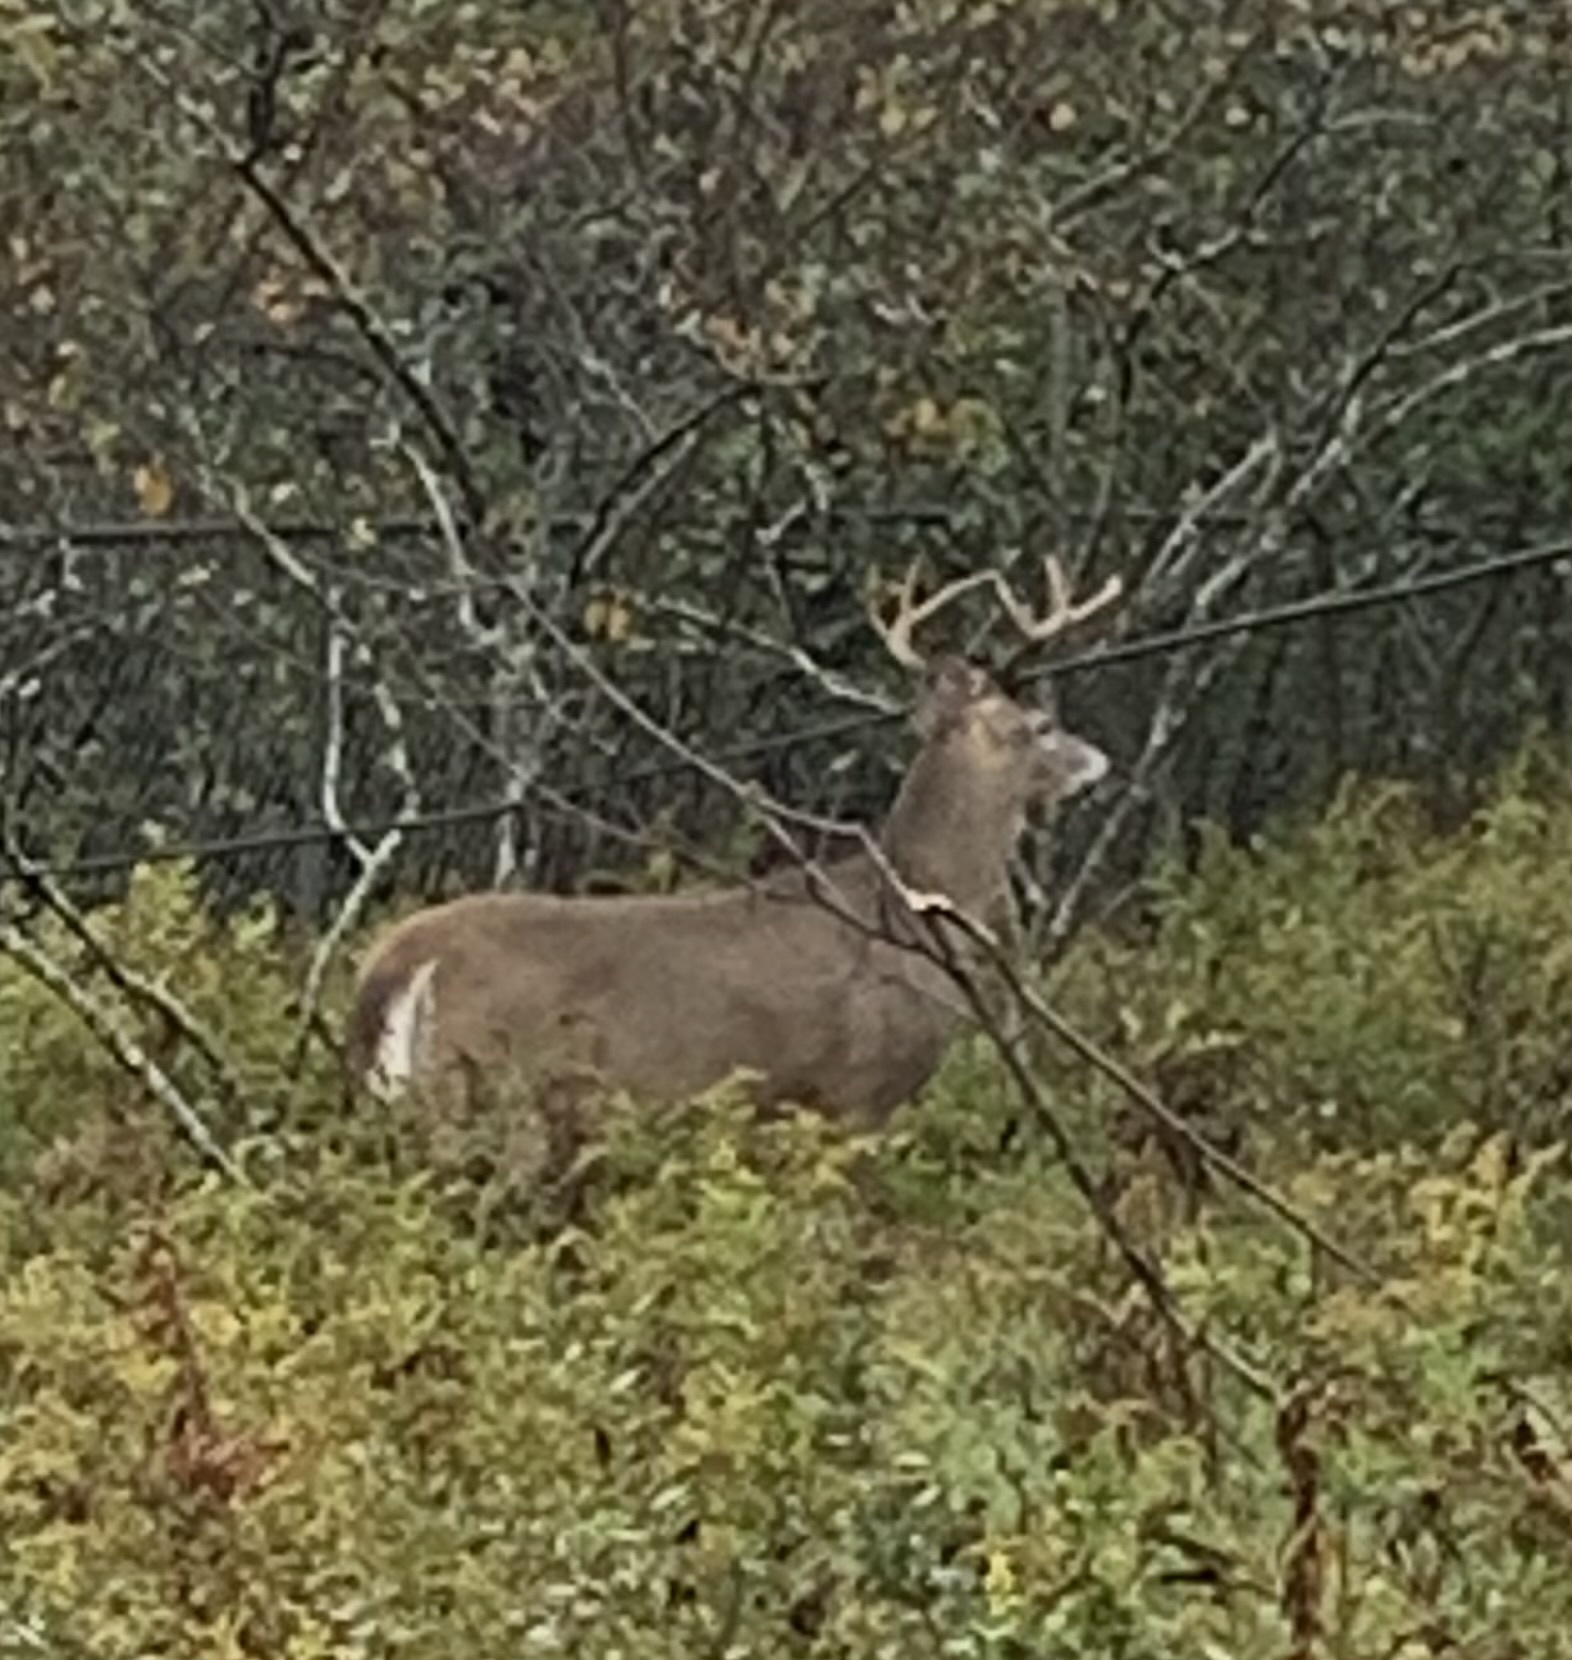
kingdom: Animalia
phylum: Chordata
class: Mammalia
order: Artiodactyla
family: Cervidae
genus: Odocoileus
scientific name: Odocoileus virginianus
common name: White-tailed deer
